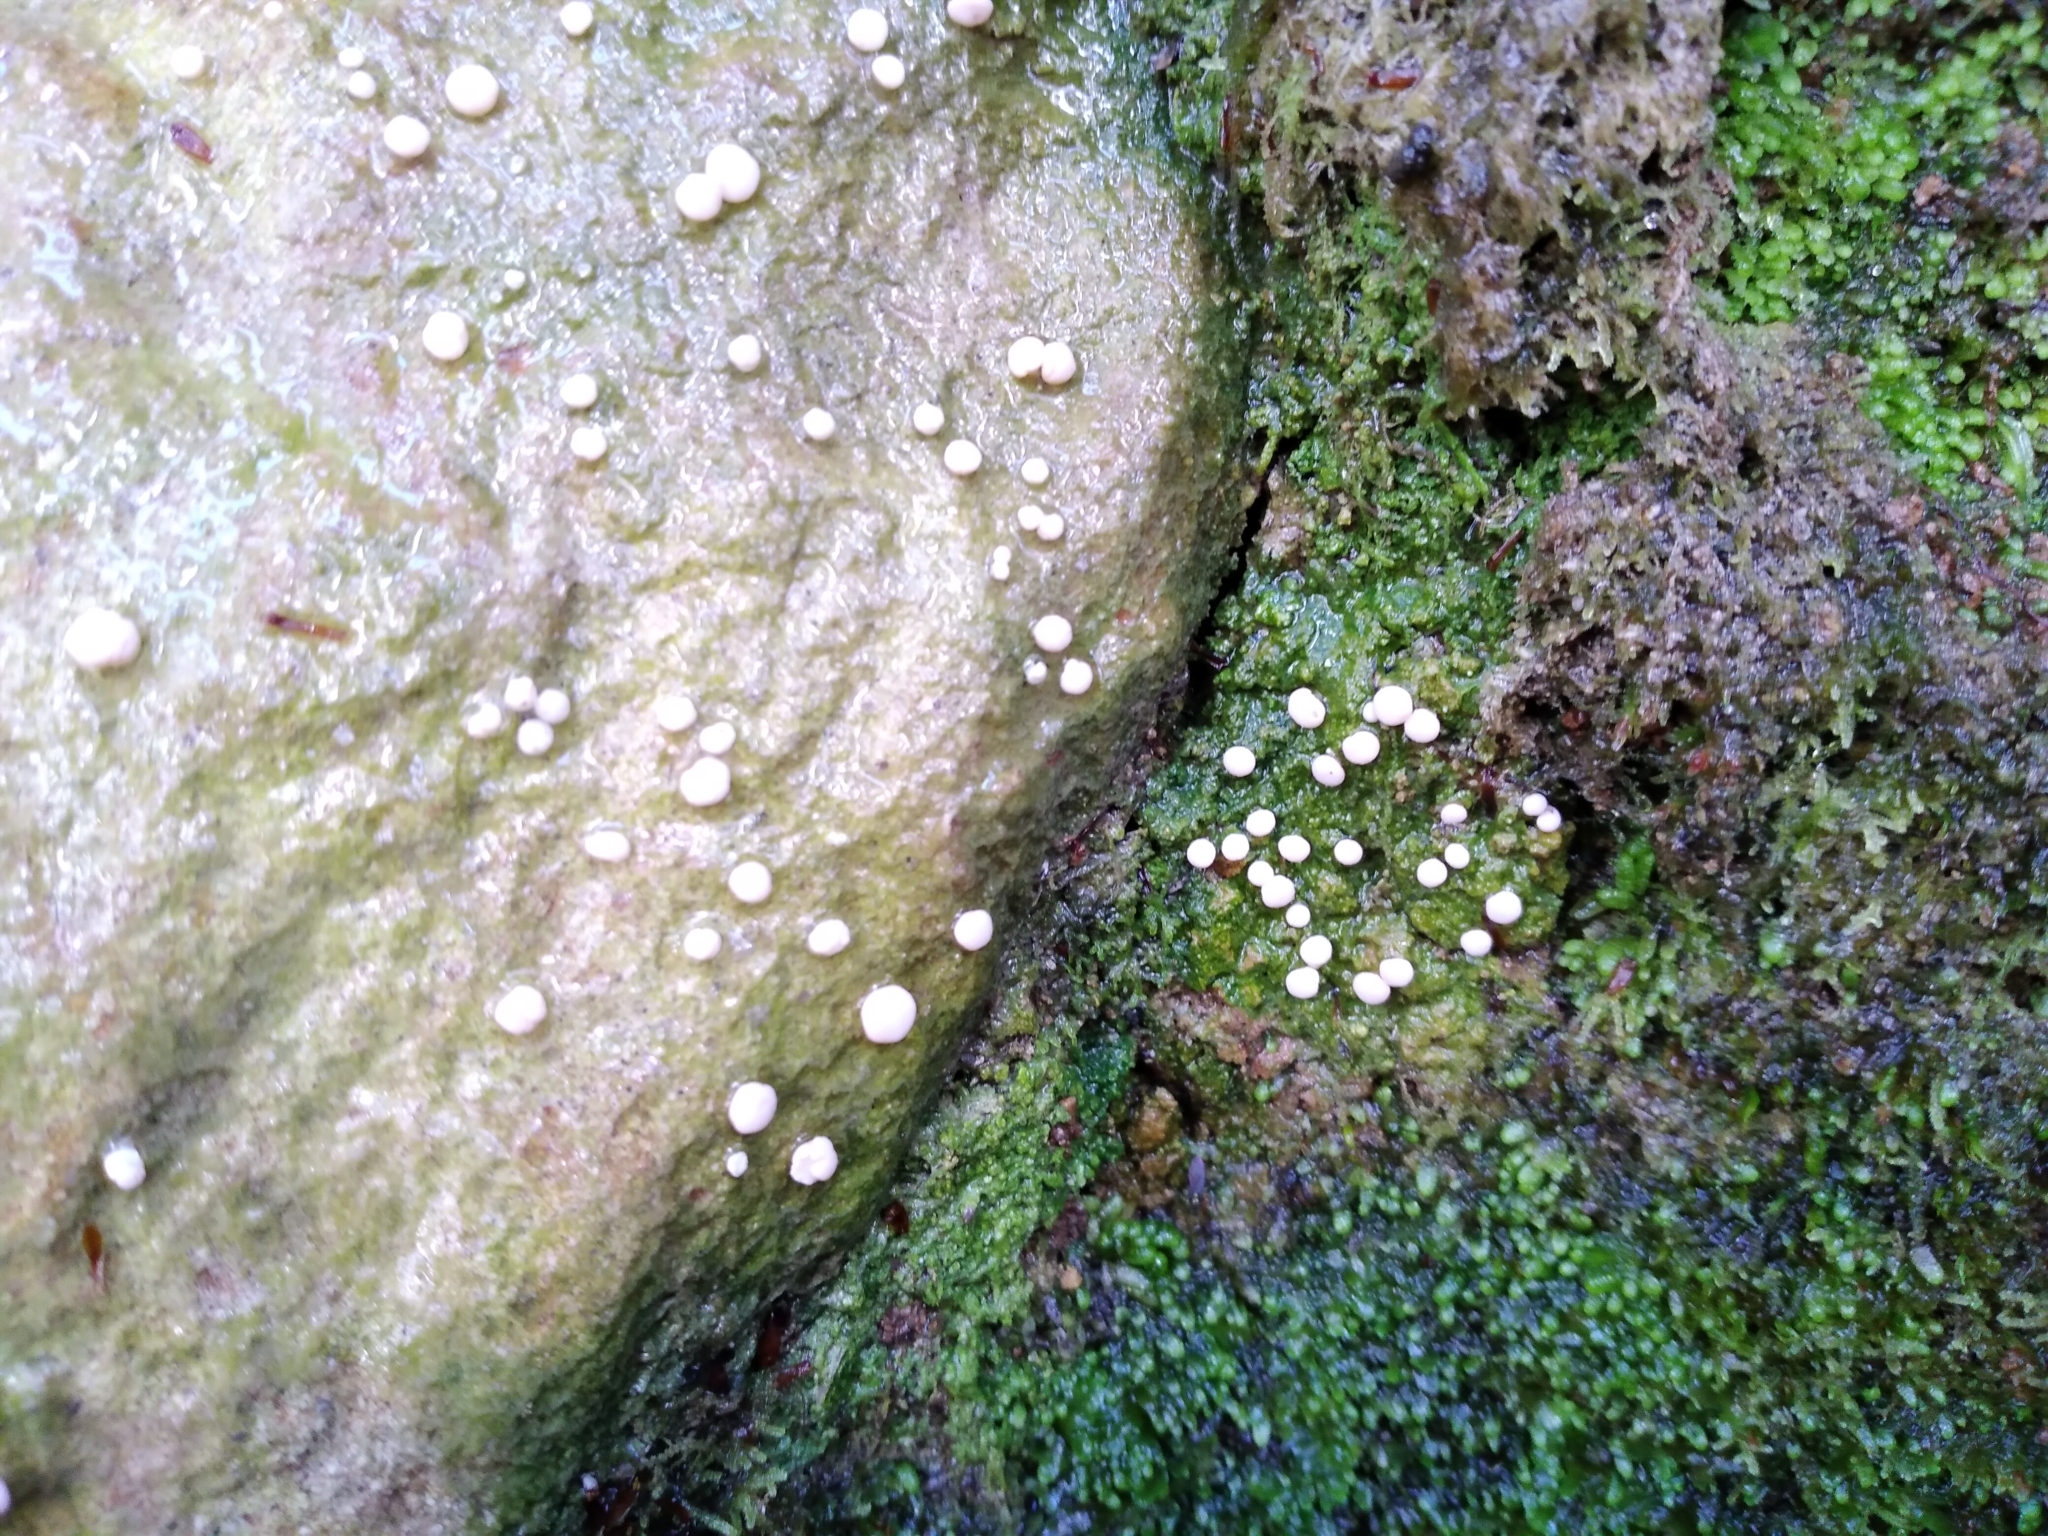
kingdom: Fungi
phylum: Ascomycota
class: Lecanoromycetes
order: Pertusariales
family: Icmadophilaceae
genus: Dibaeis
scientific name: Dibaeis absoluta
